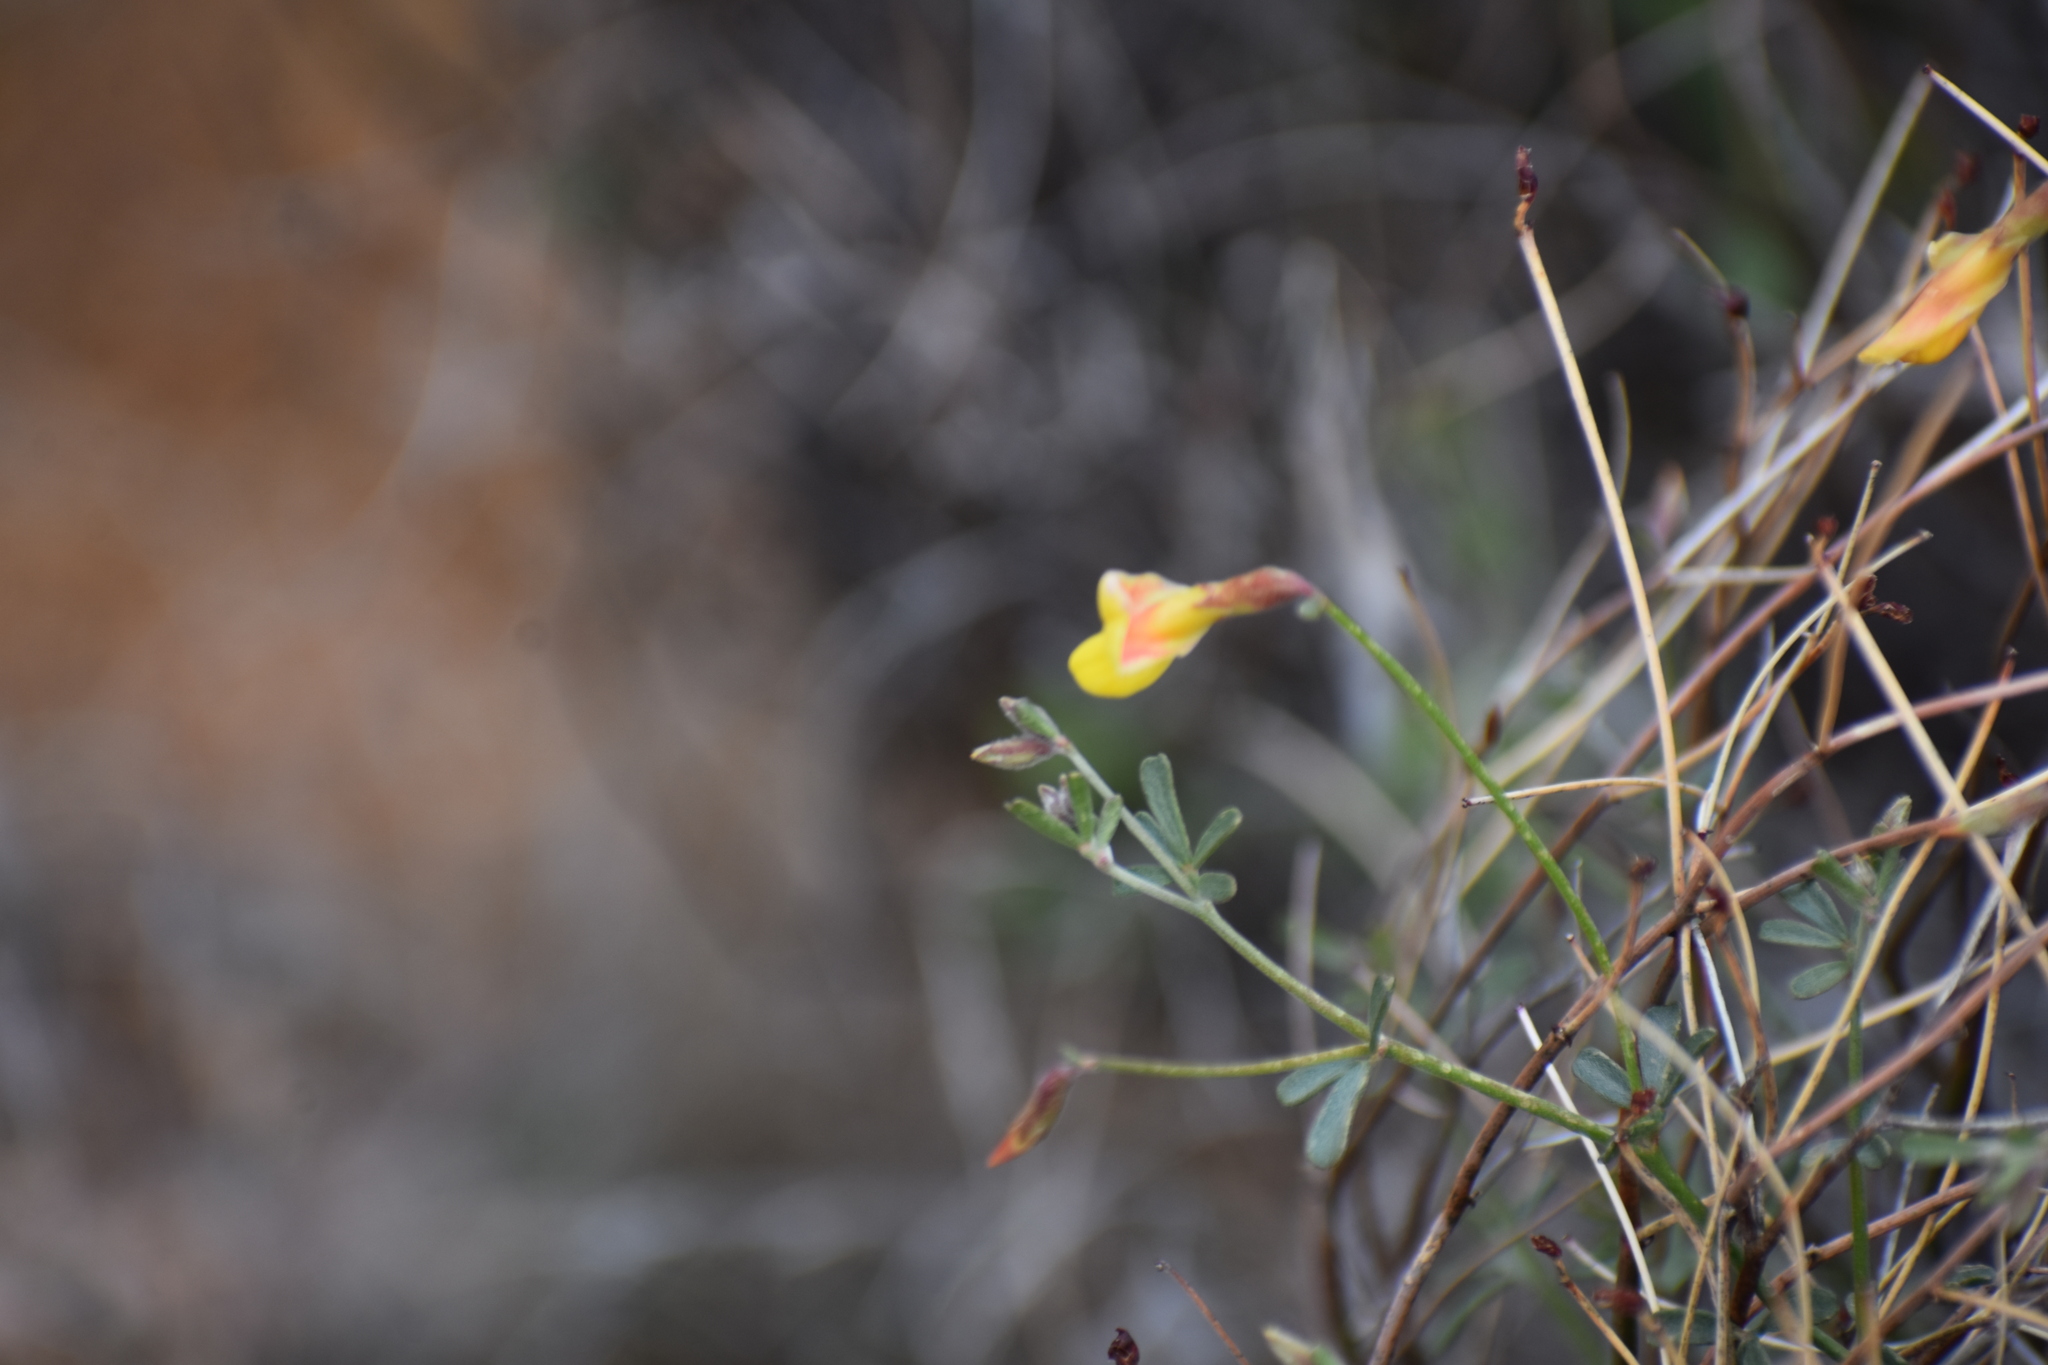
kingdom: Plantae
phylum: Tracheophyta
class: Magnoliopsida
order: Fabales
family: Fabaceae
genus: Acmispon
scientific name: Acmispon rigidus
